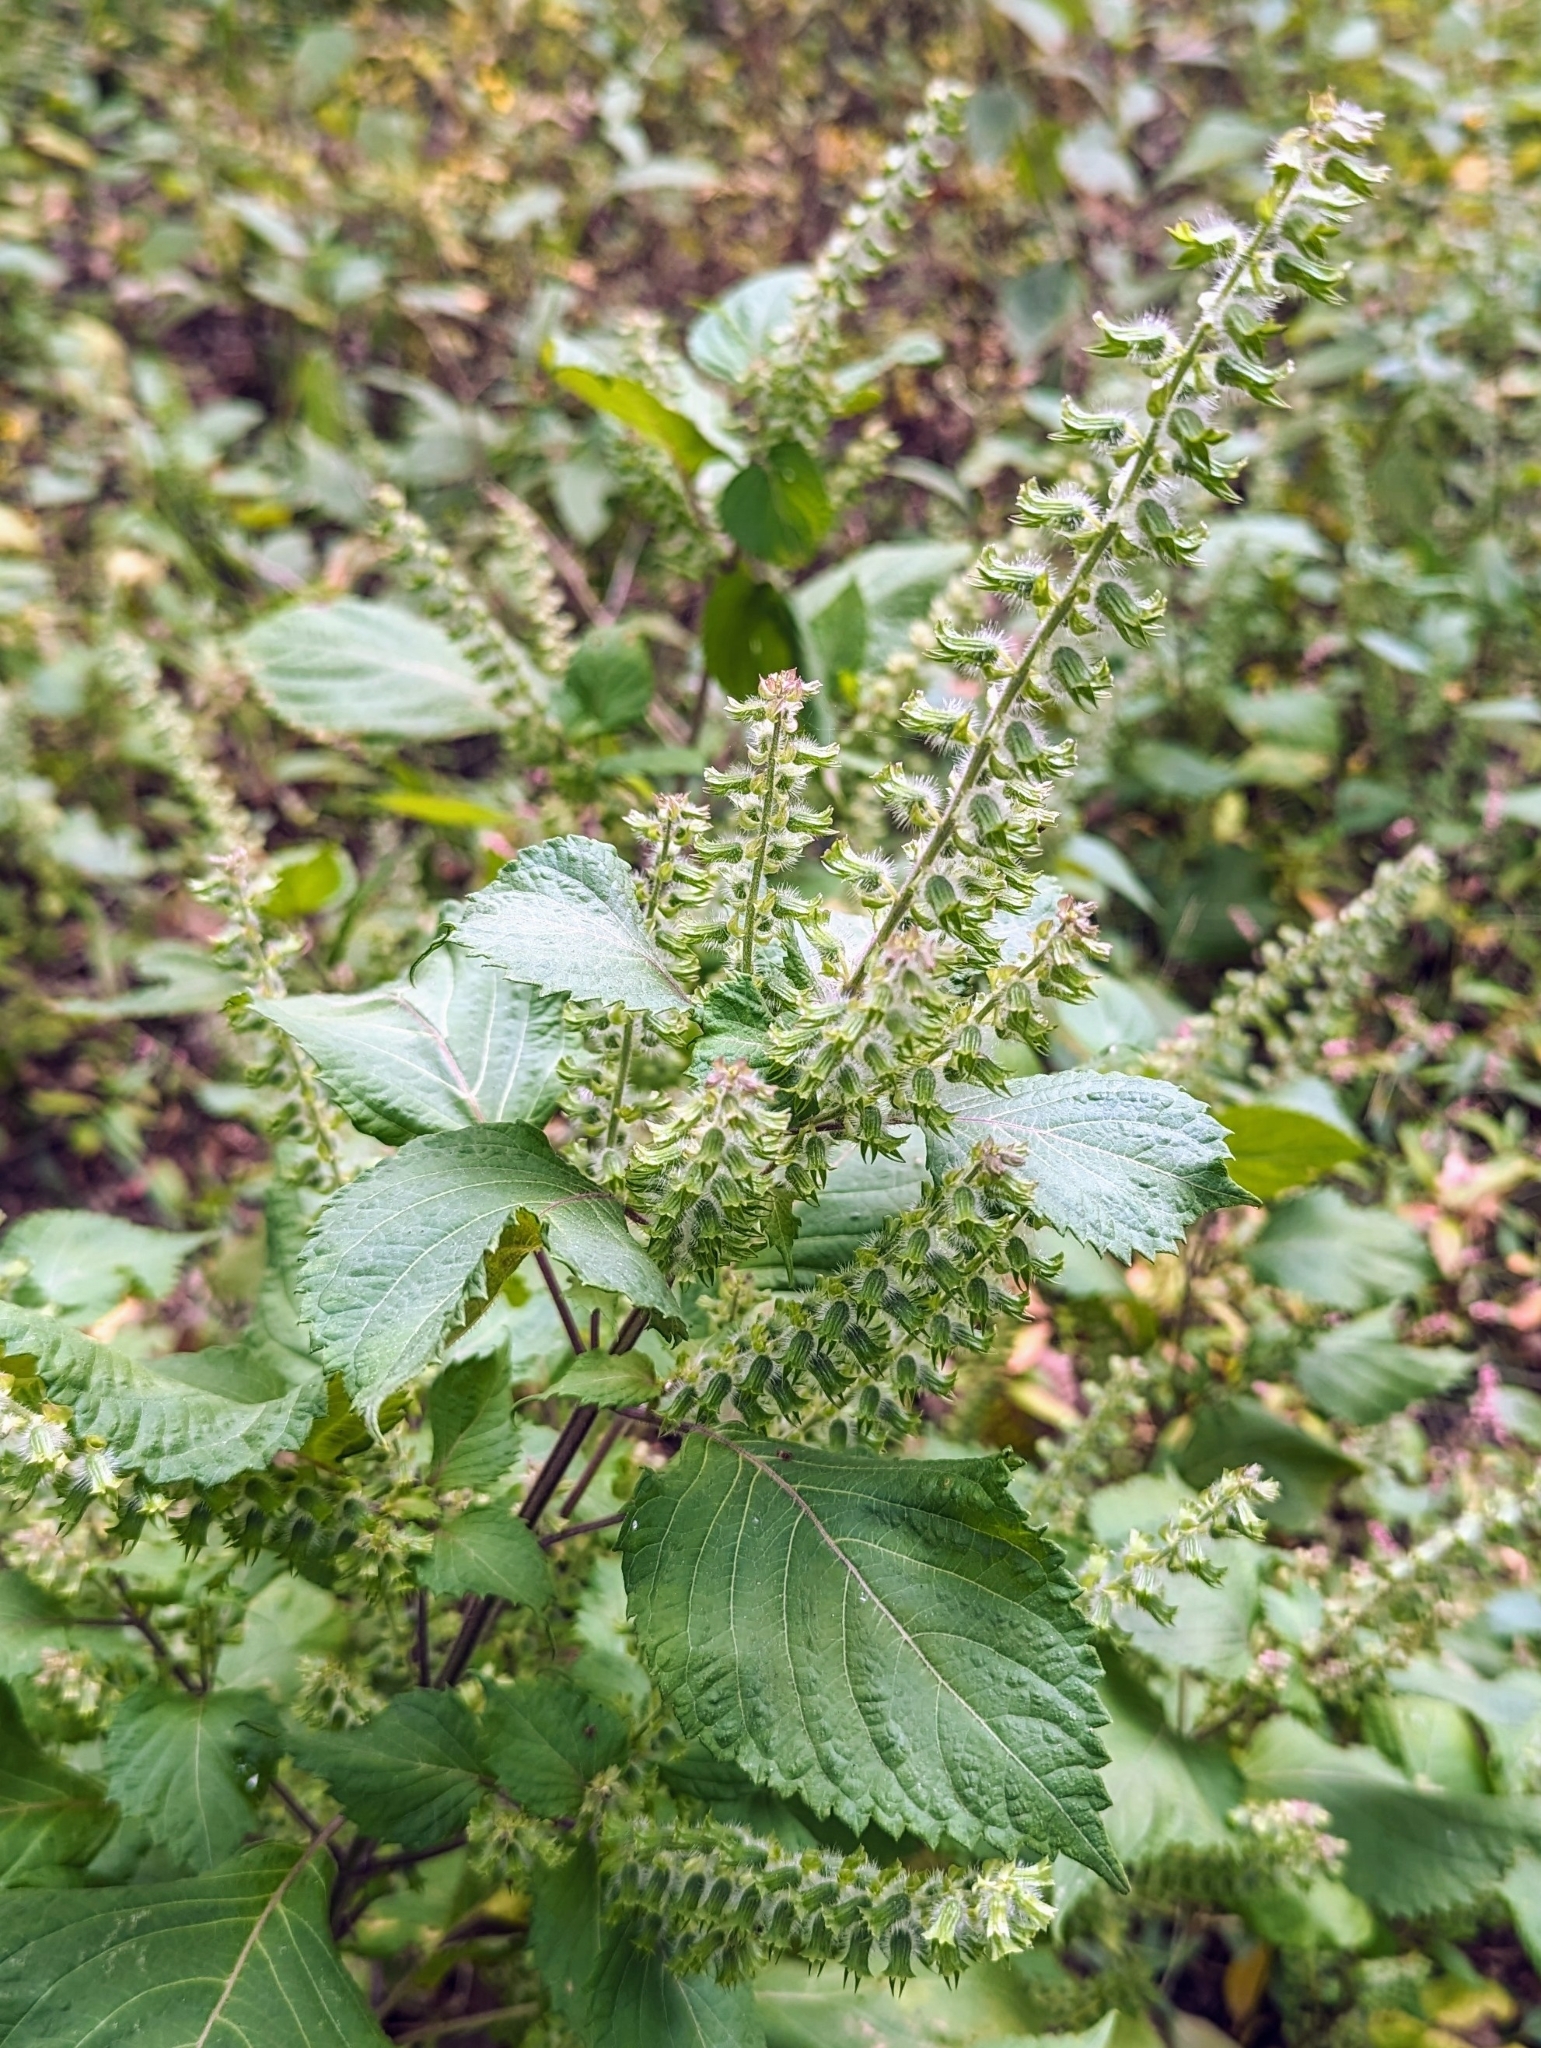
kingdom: Plantae
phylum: Tracheophyta
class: Magnoliopsida
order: Lamiales
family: Lamiaceae
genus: Perilla
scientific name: Perilla frutescens
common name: Perilla
